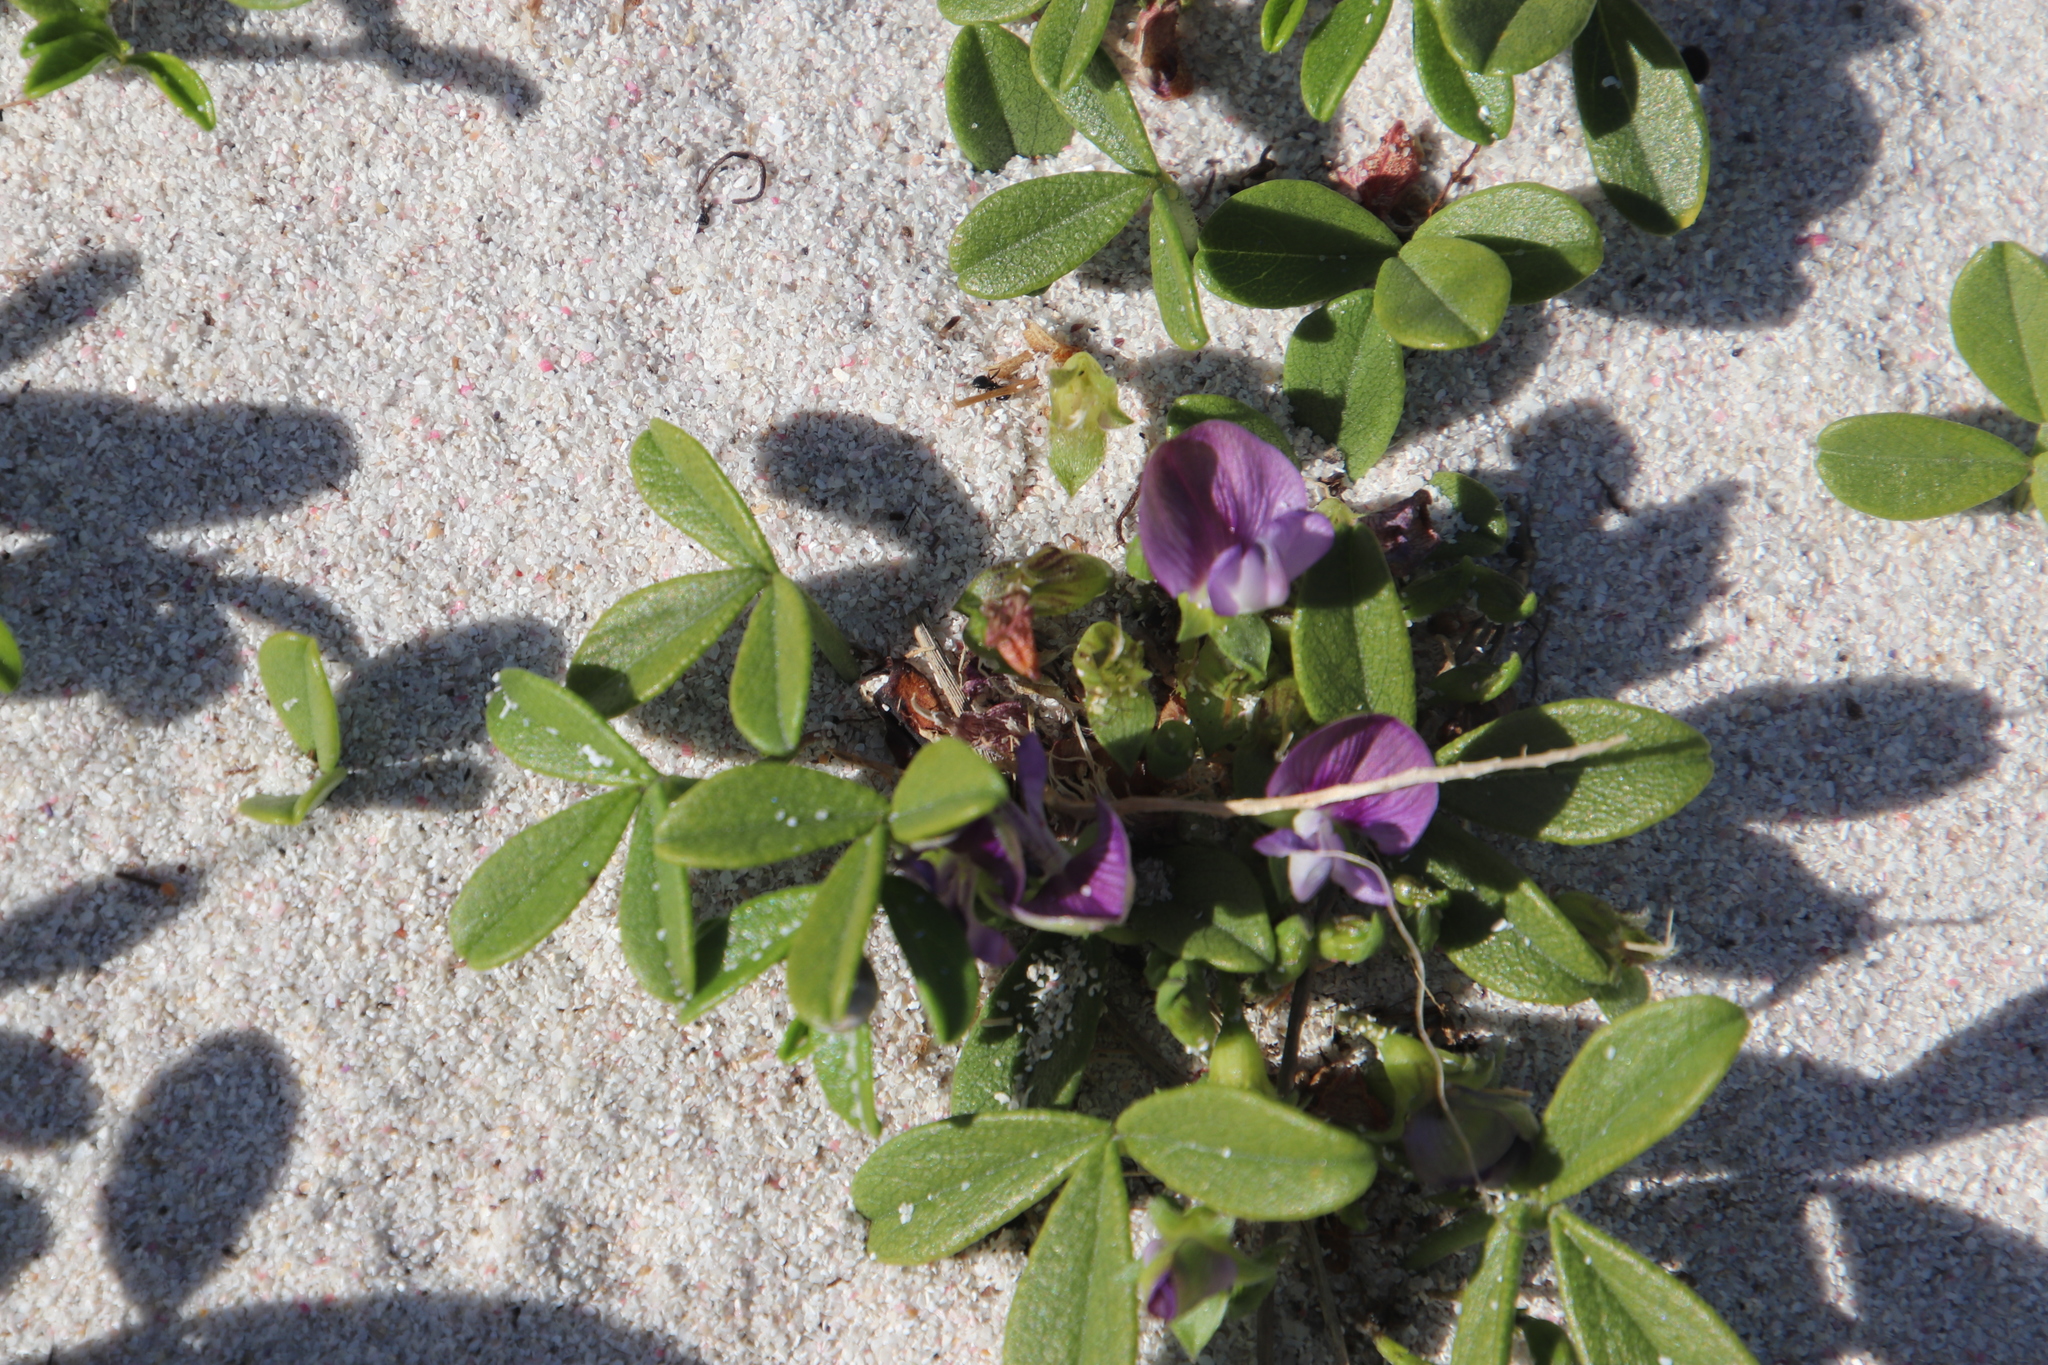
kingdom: Plantae
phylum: Tracheophyta
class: Magnoliopsida
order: Fabales
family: Fabaceae
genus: Psoralea
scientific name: Psoralea repens
